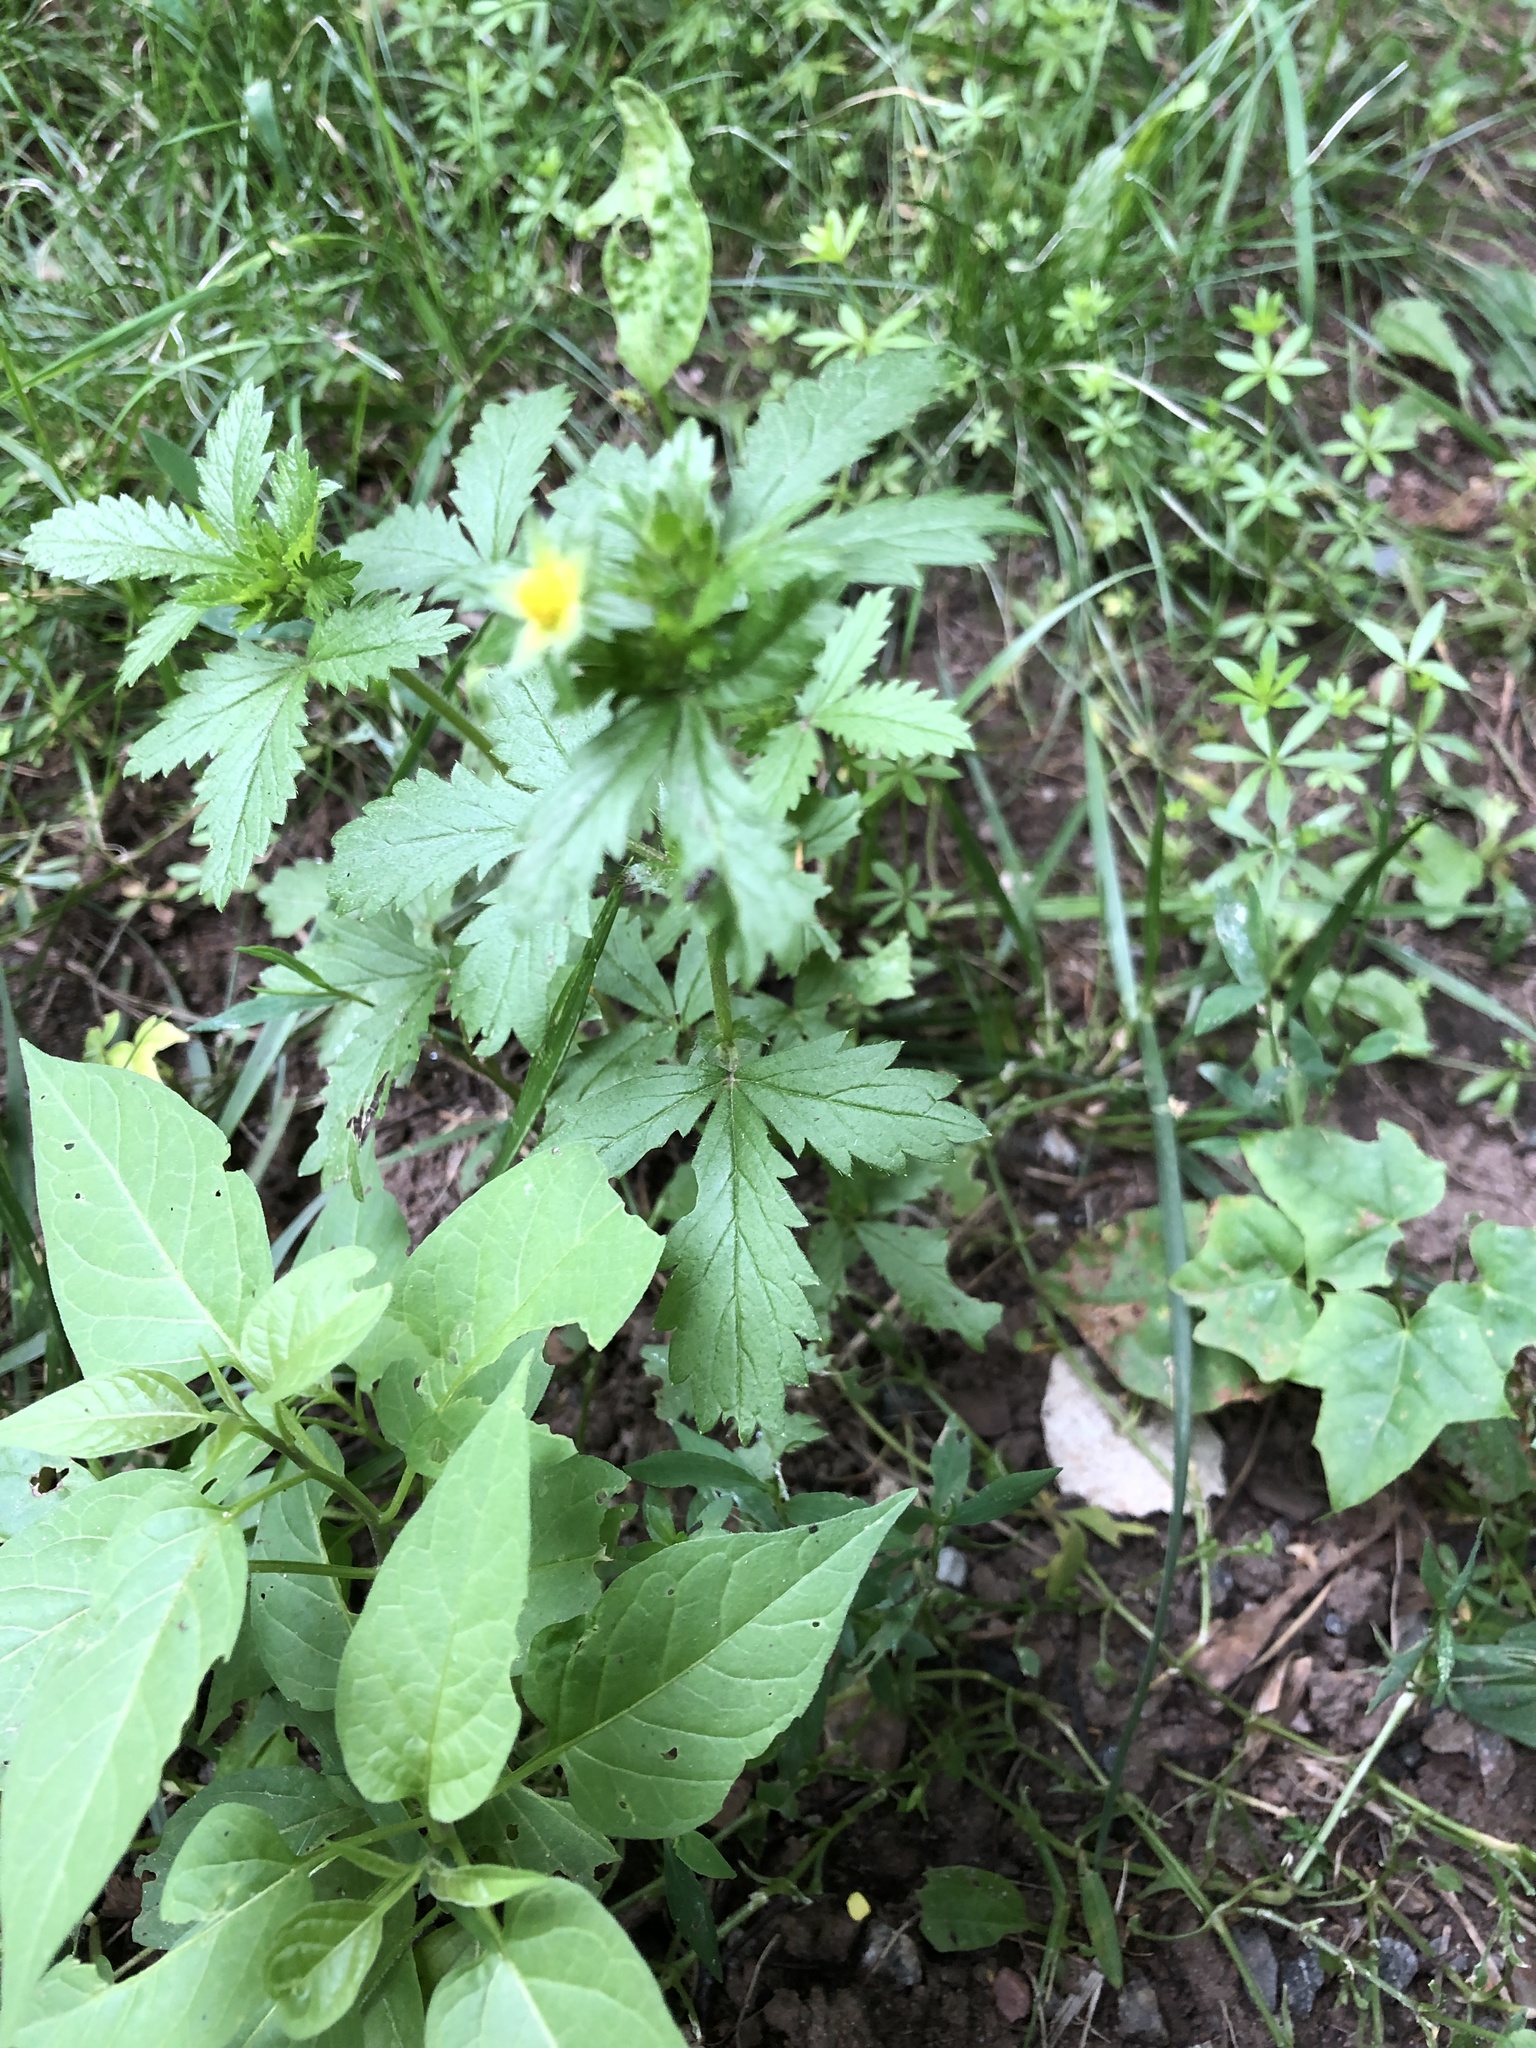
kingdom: Plantae
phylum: Tracheophyta
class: Magnoliopsida
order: Rosales
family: Rosaceae
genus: Potentilla
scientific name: Potentilla norvegica
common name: Ternate-leaved cinquefoil
